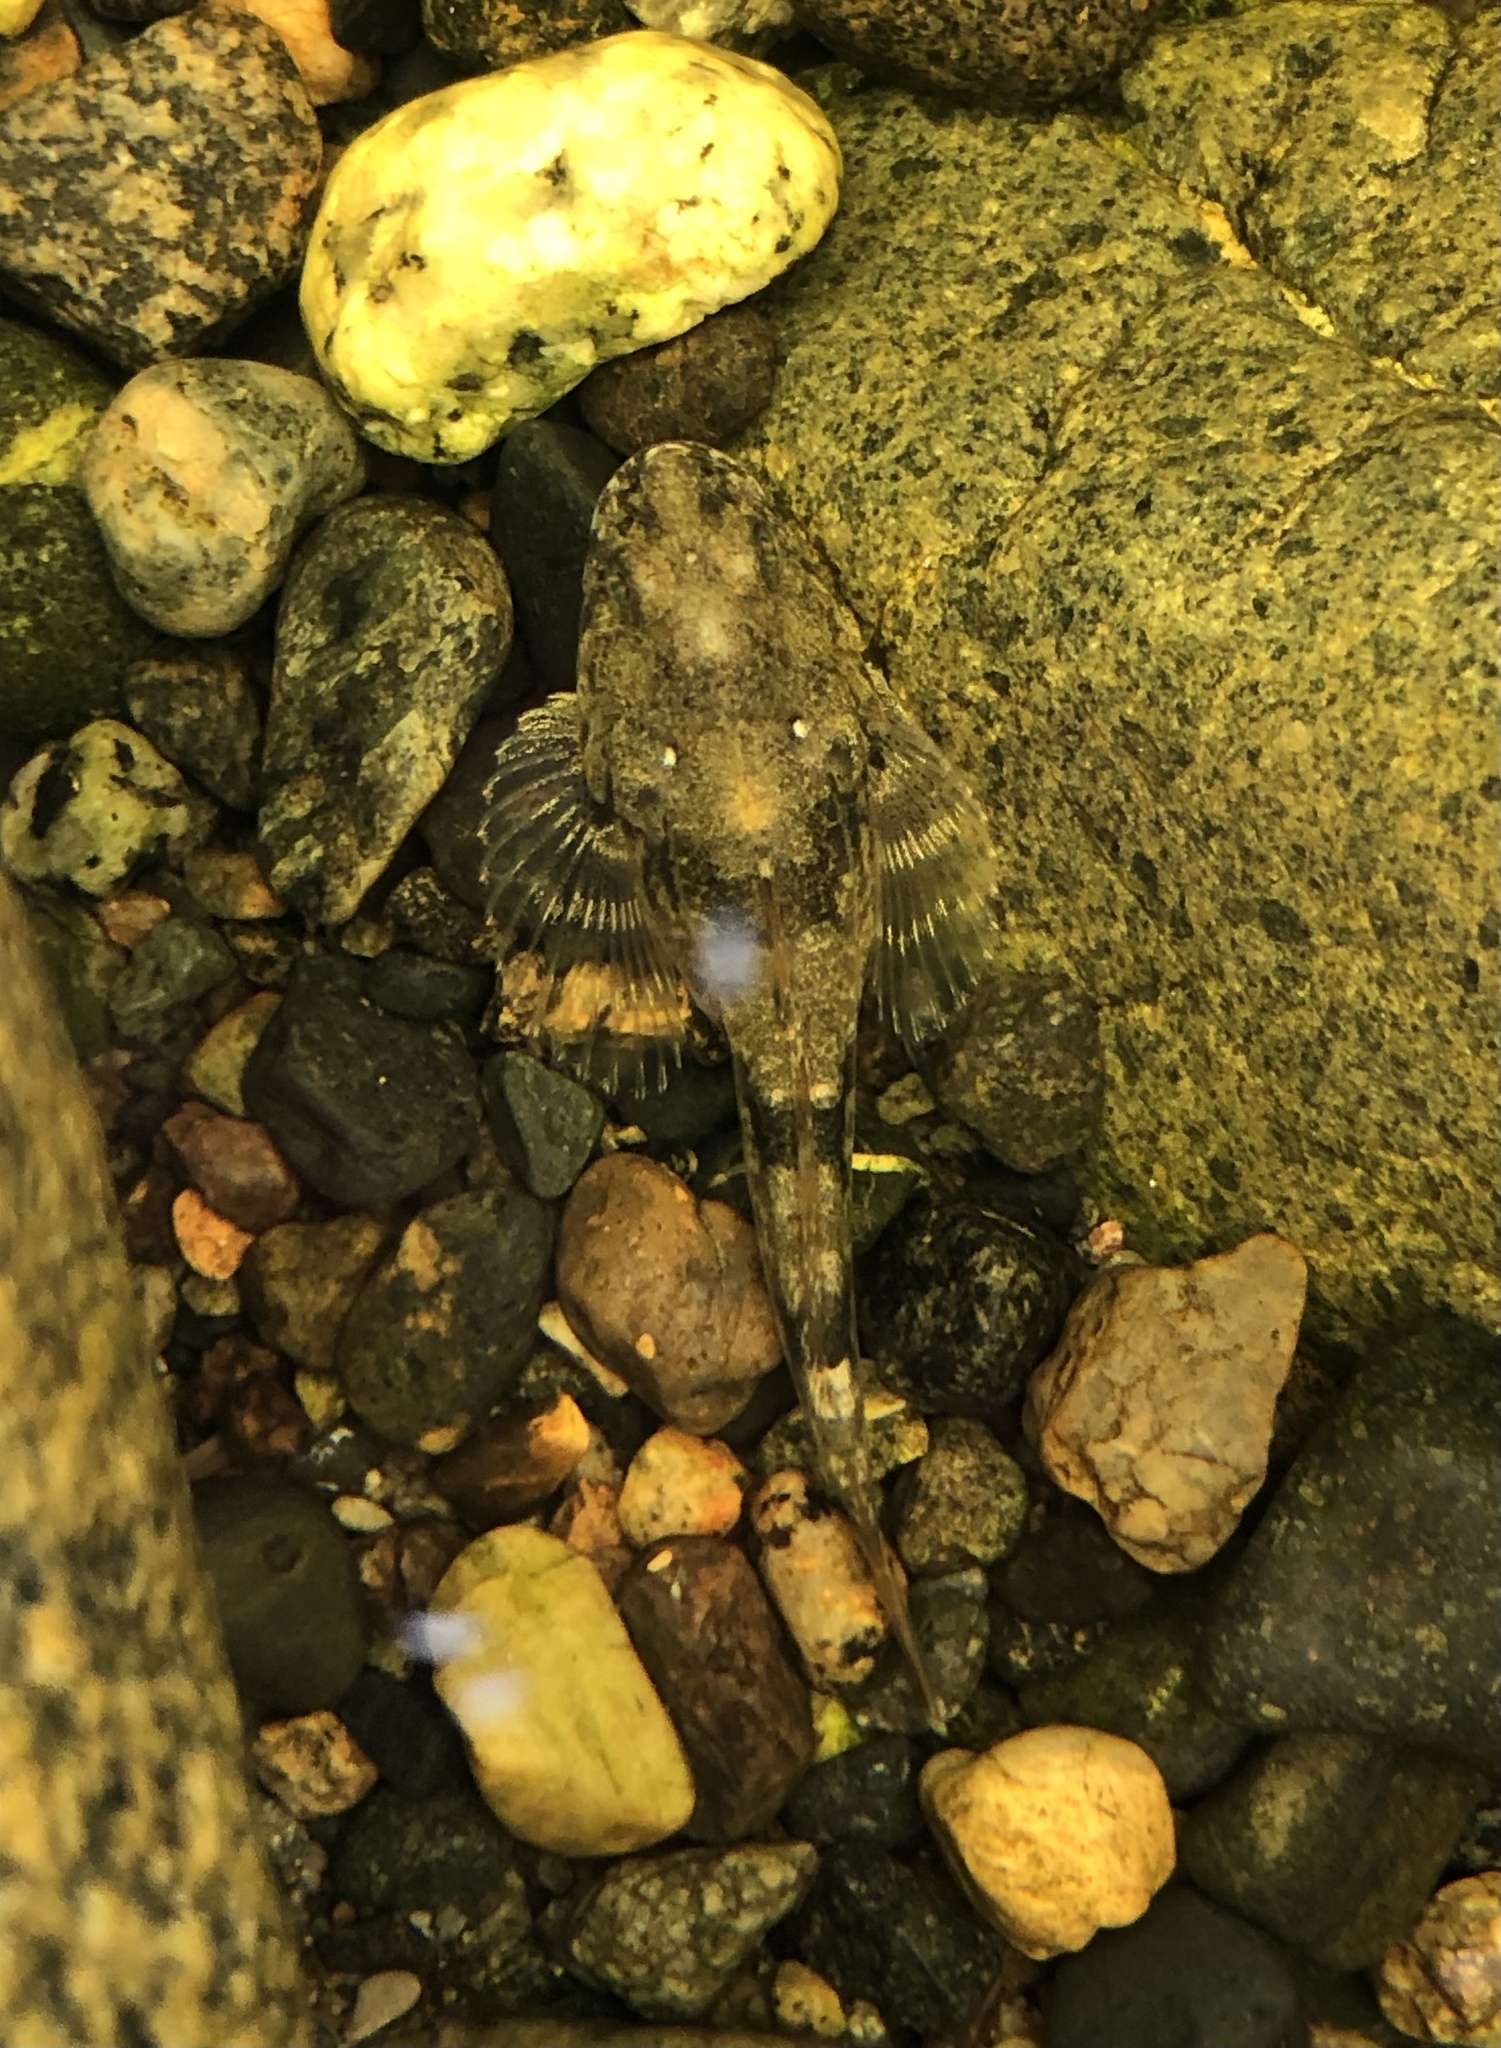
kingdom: Animalia
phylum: Chordata
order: Scorpaeniformes
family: Cottidae
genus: Leptocottus
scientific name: Leptocottus armatus
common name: Pacific staghorn sculpin
